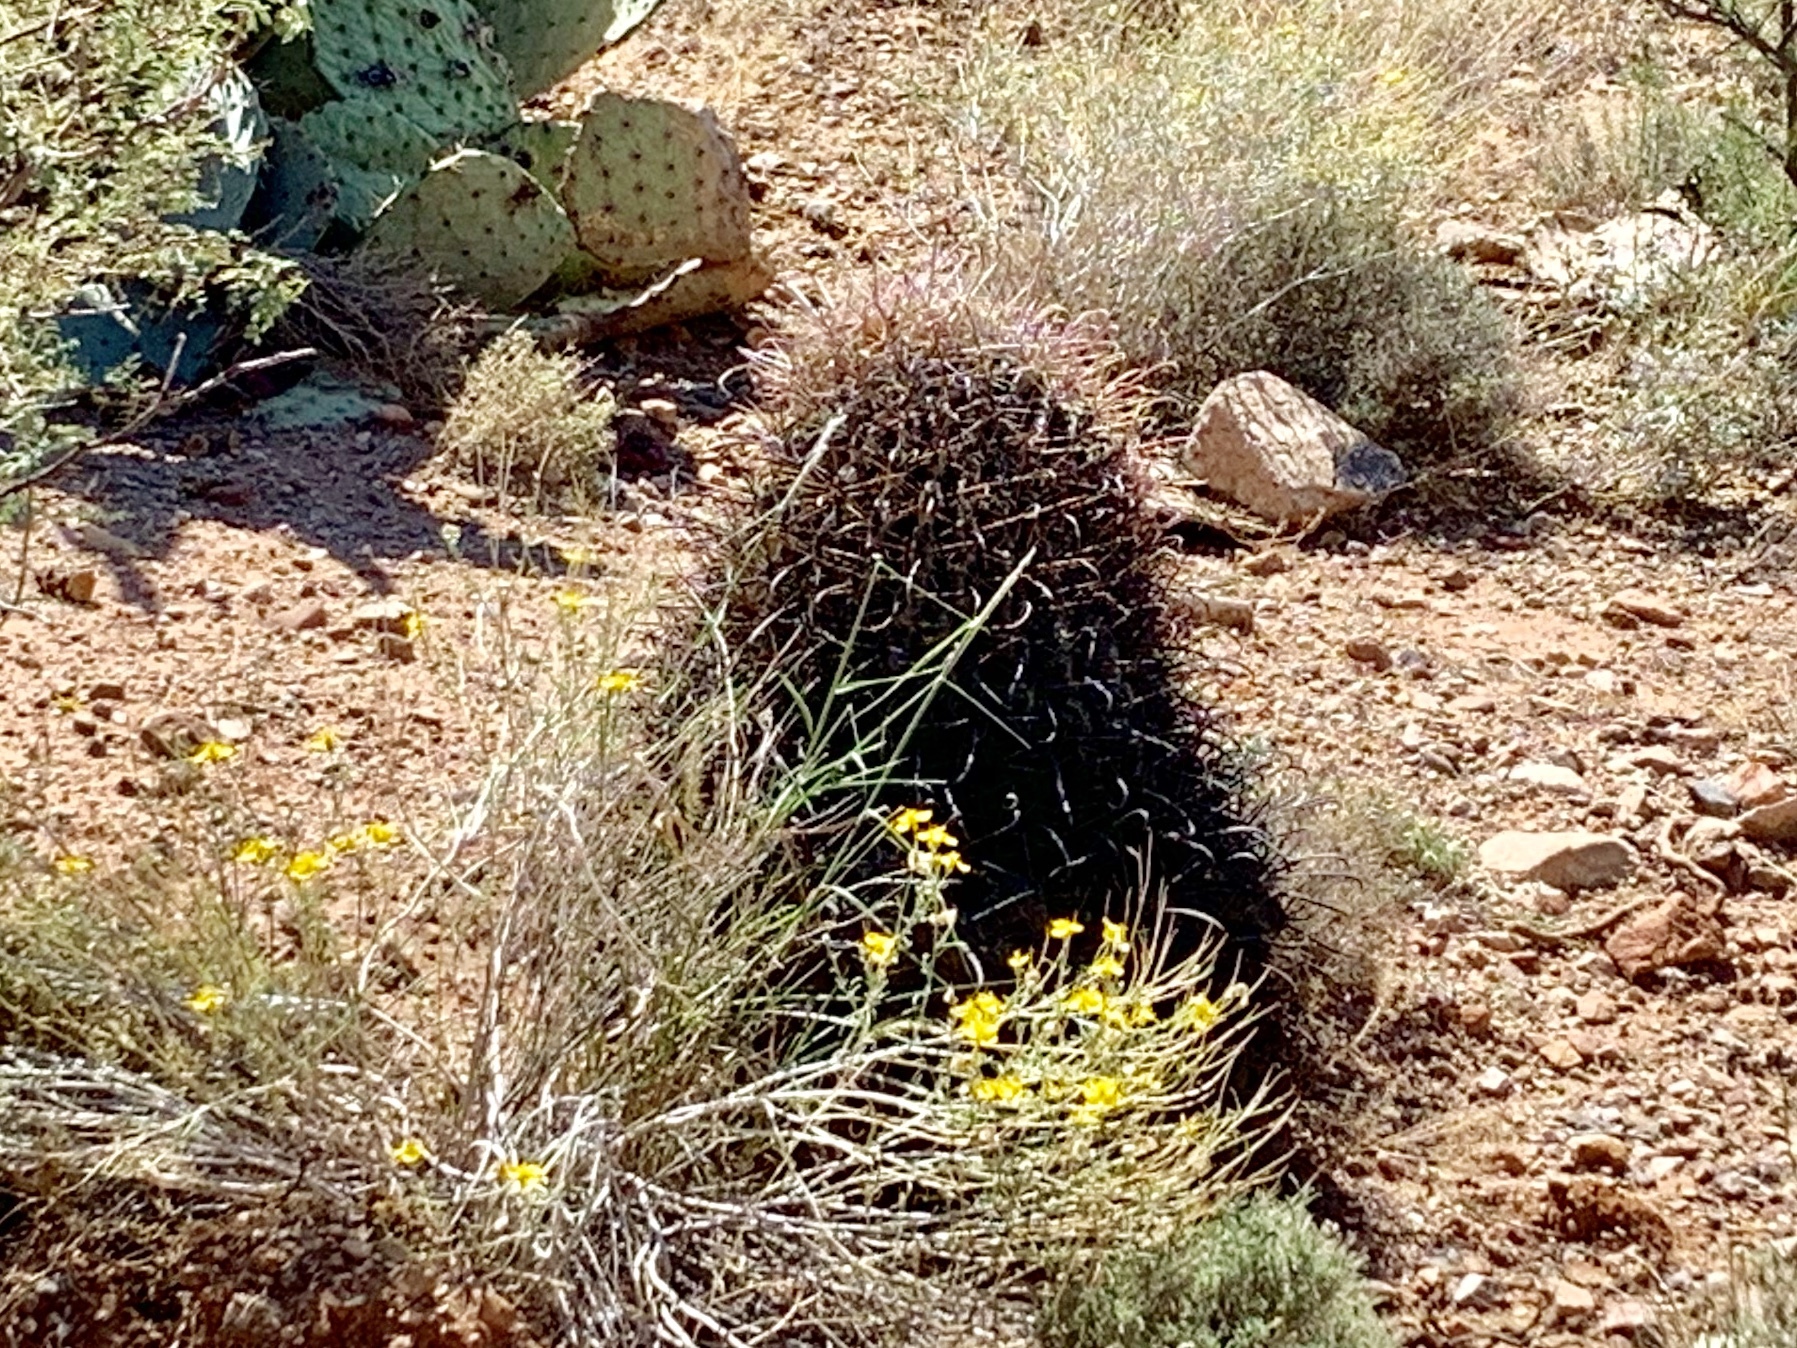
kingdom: Plantae
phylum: Tracheophyta
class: Magnoliopsida
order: Caryophyllales
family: Cactaceae
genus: Ferocactus
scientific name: Ferocactus wislizeni
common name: Candy barrel cactus
